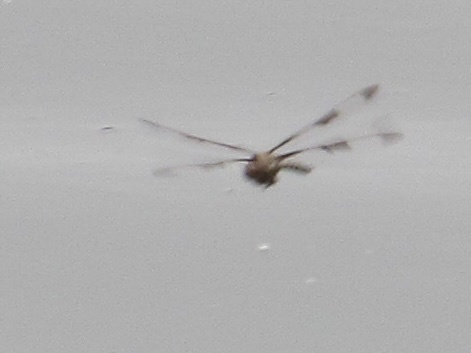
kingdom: Animalia
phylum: Arthropoda
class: Insecta
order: Odonata
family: Corduliidae
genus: Epitheca
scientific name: Epitheca princeps
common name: Prince baskettail
